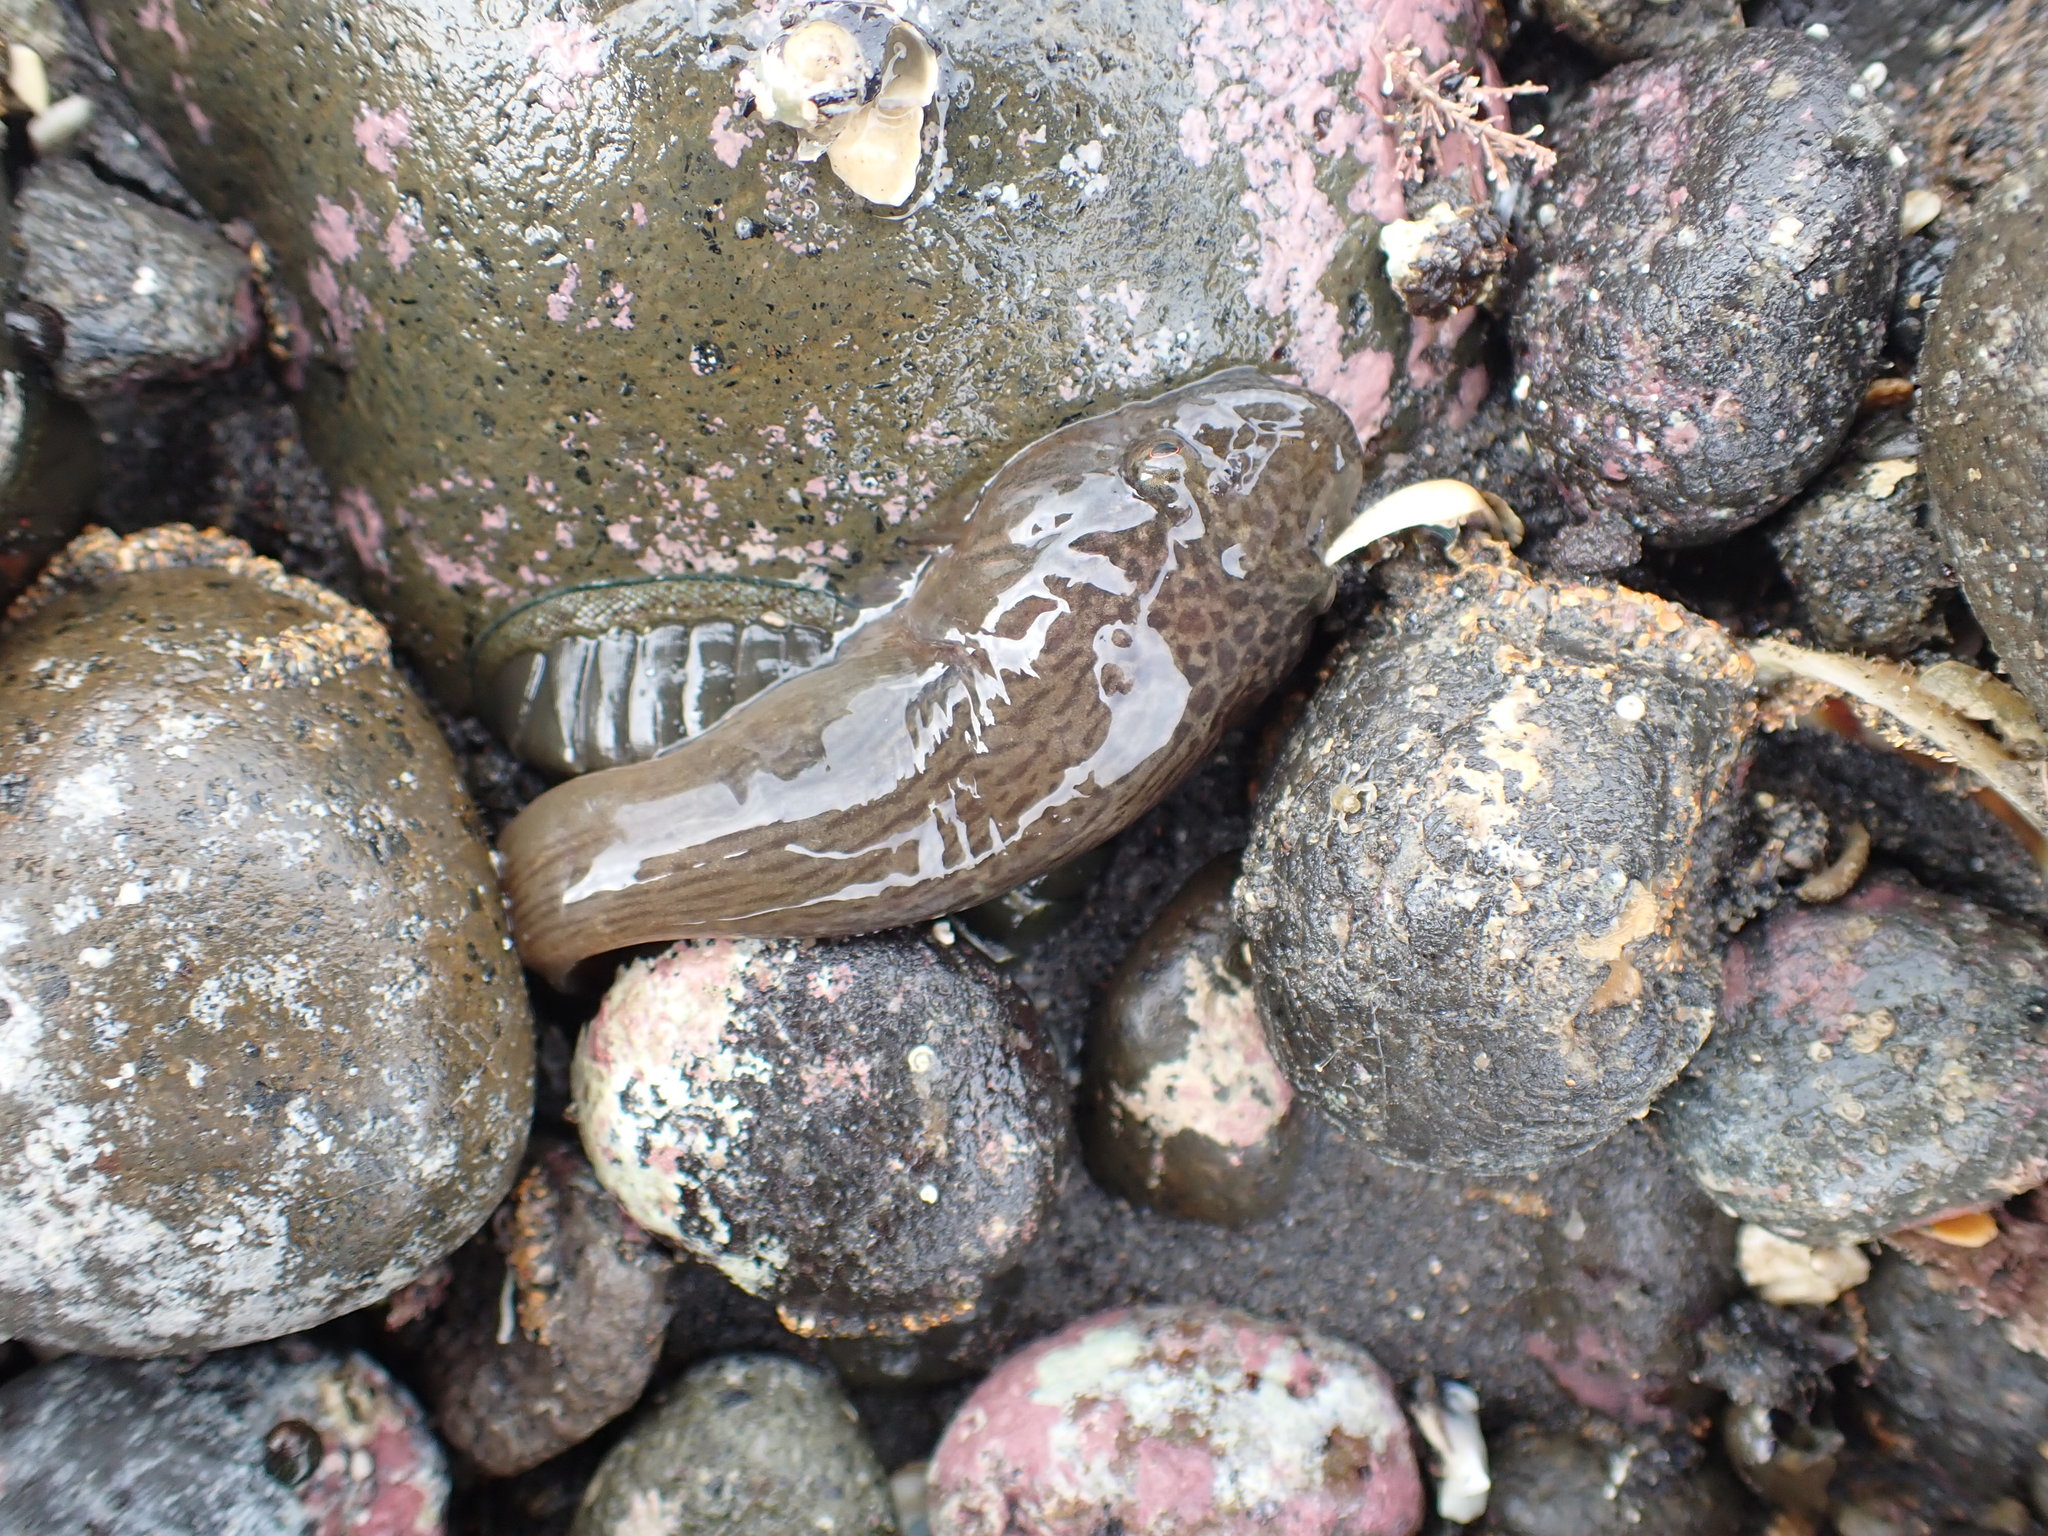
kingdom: Animalia
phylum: Chordata
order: Gobiesociformes
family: Gobiesocidae
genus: Trachelochismus
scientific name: Trachelochismus pinnulatus
